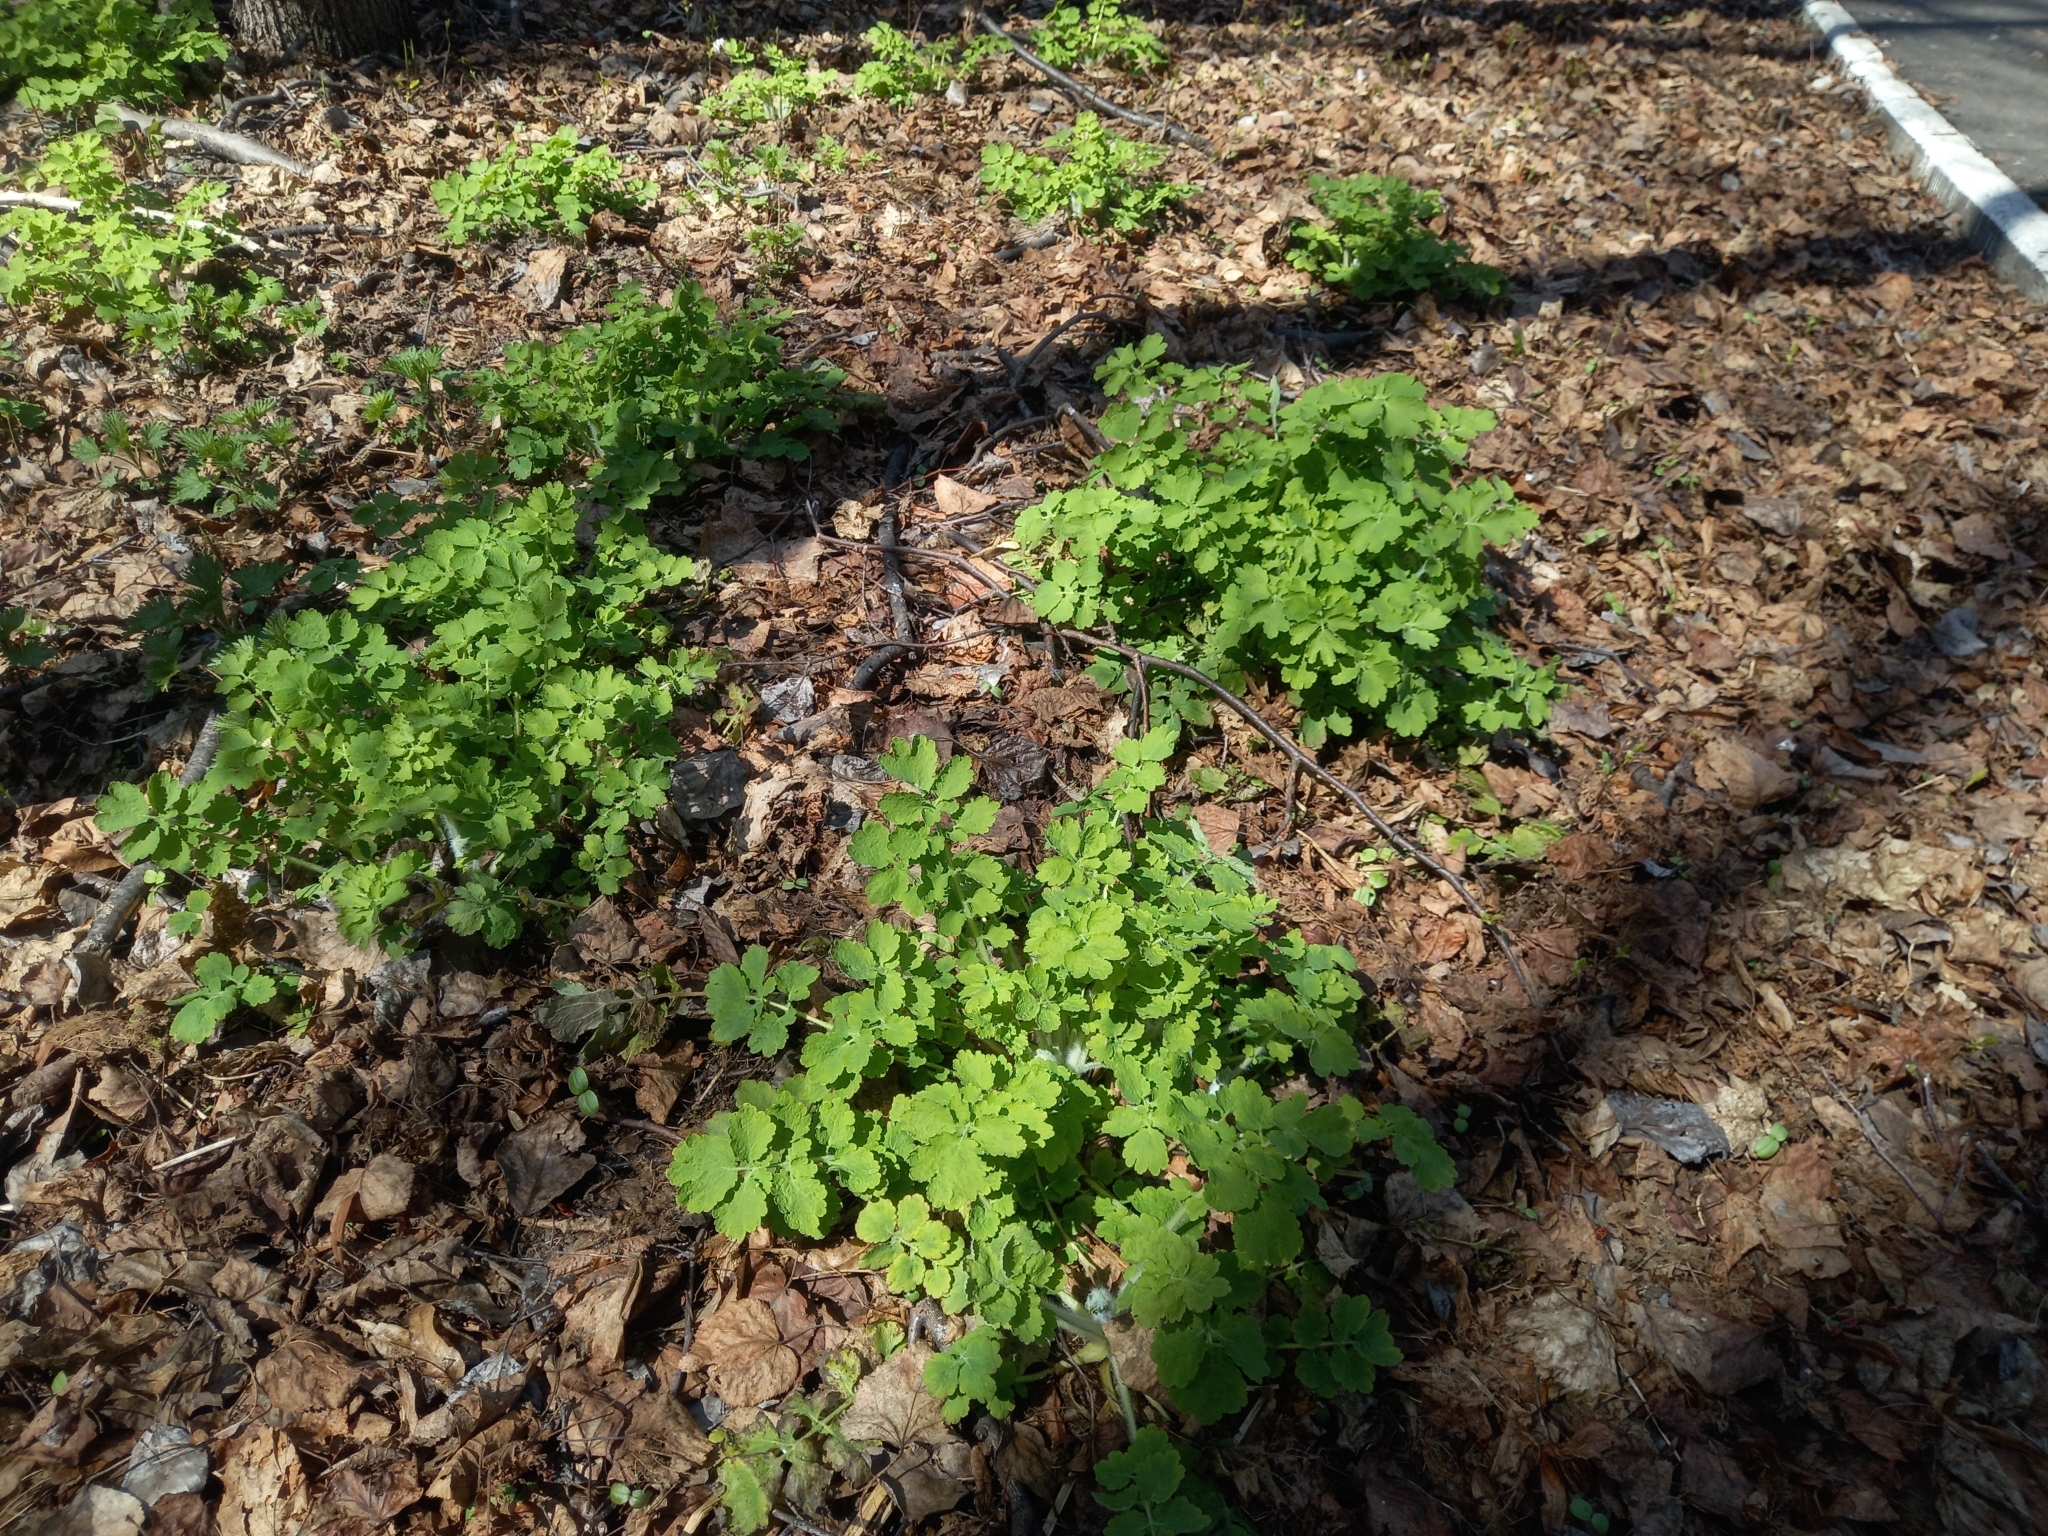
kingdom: Plantae
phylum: Tracheophyta
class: Magnoliopsida
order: Ranunculales
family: Papaveraceae
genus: Chelidonium
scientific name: Chelidonium majus
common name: Greater celandine
